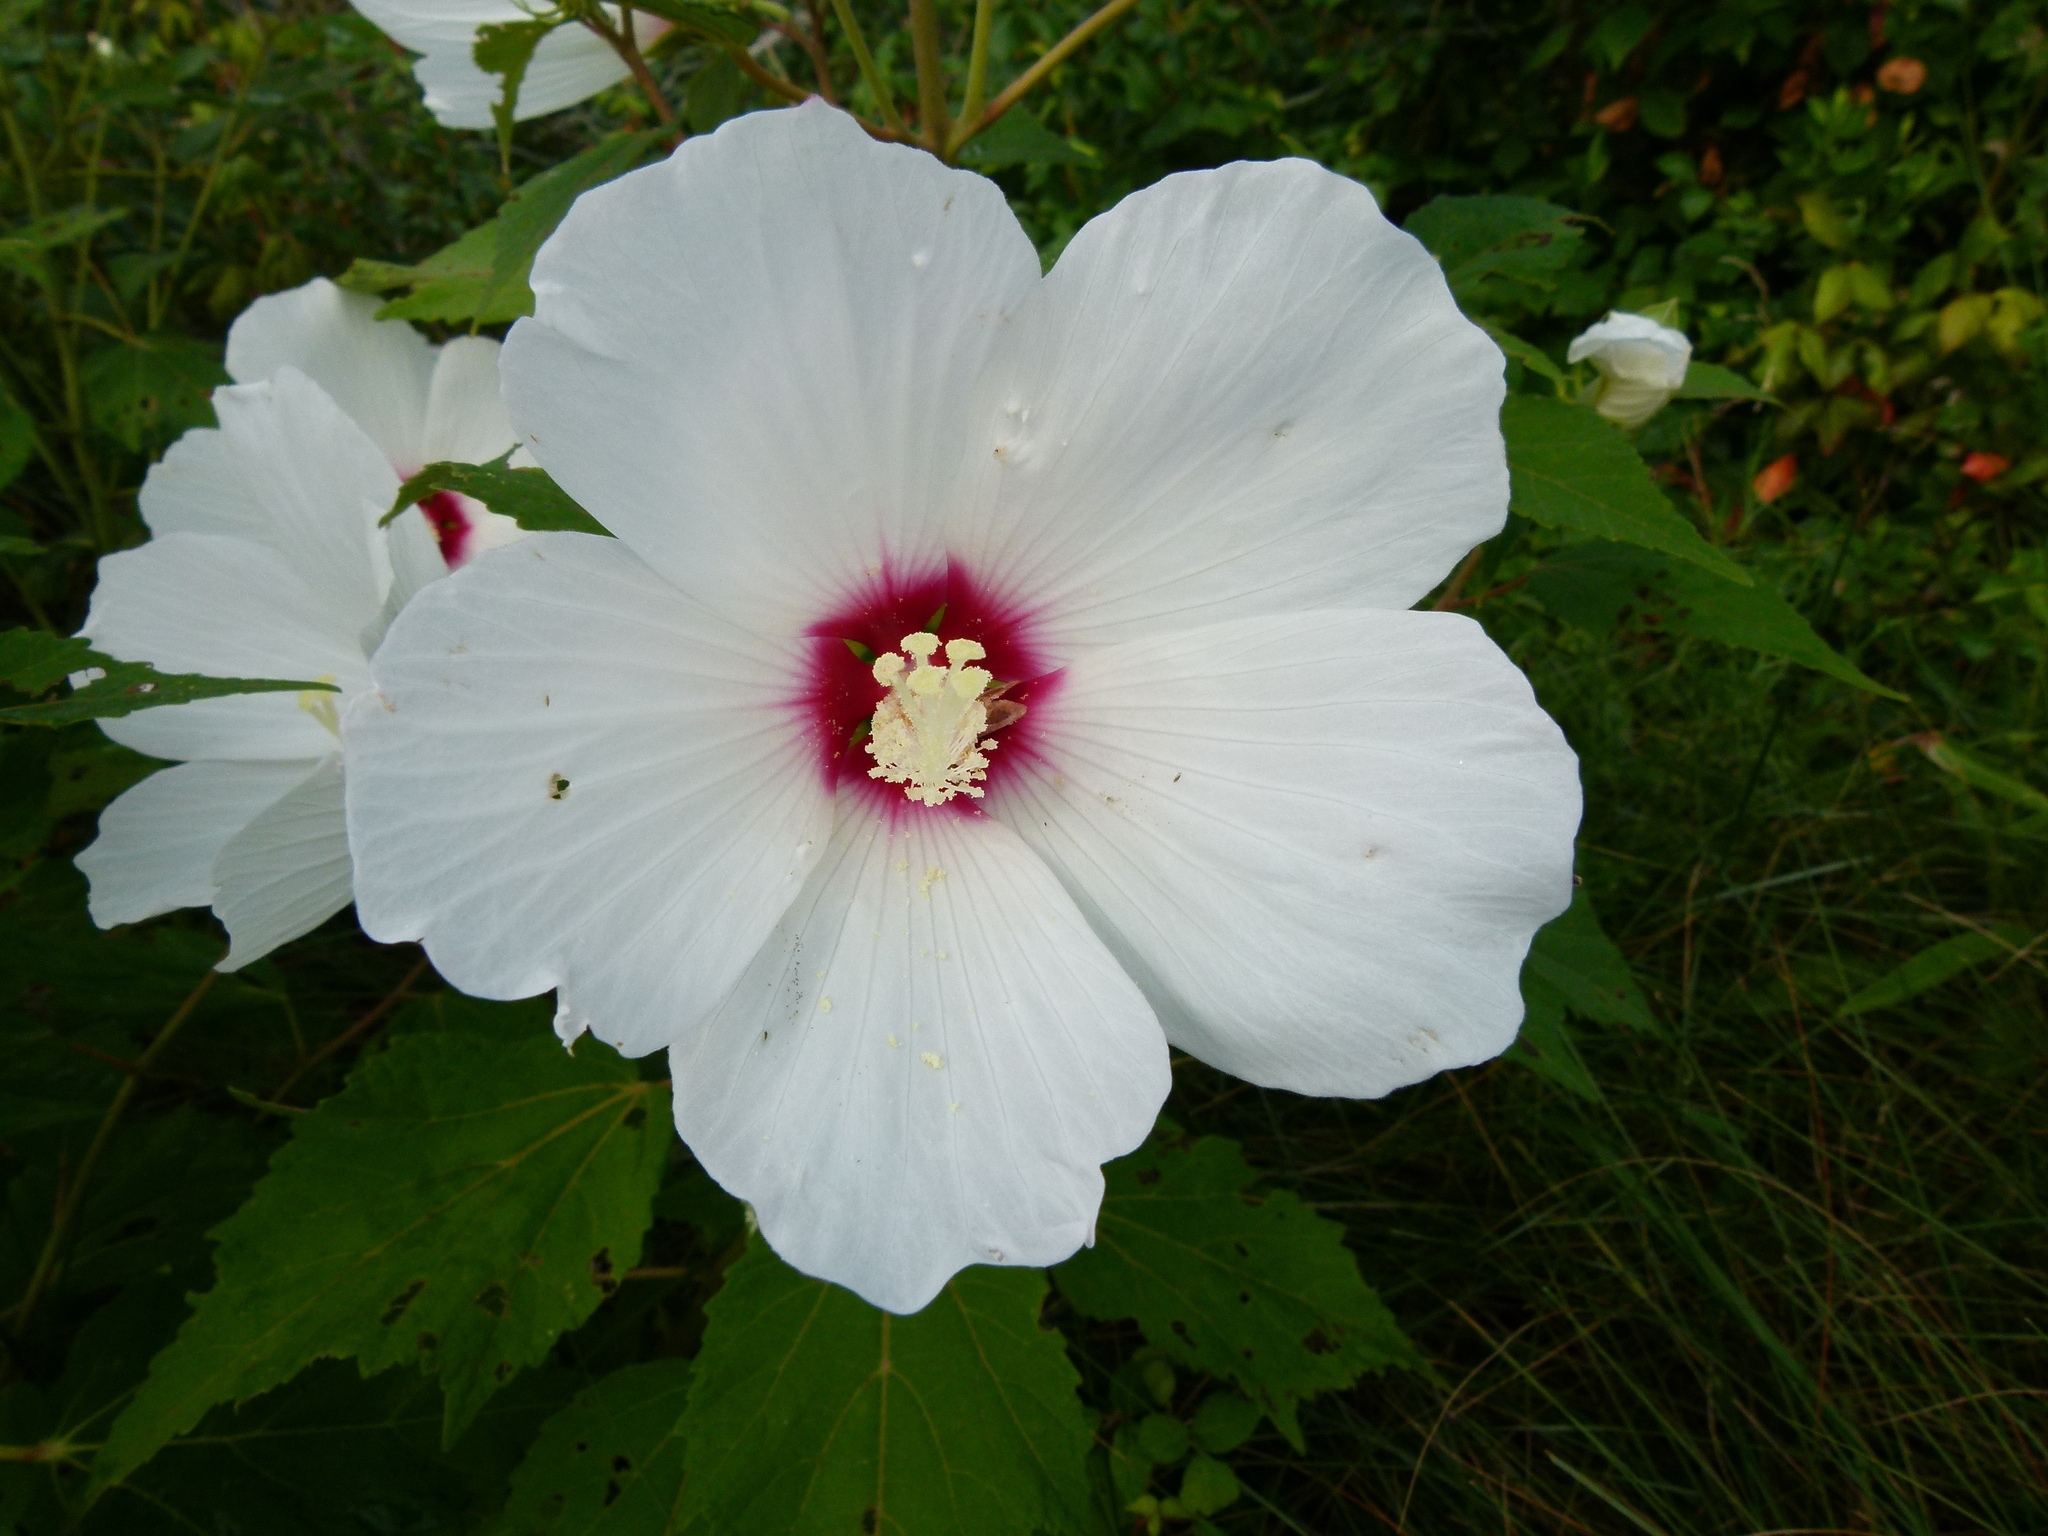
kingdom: Plantae
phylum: Tracheophyta
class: Magnoliopsida
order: Malvales
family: Malvaceae
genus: Hibiscus
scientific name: Hibiscus moscheutos
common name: Common rose-mallow
